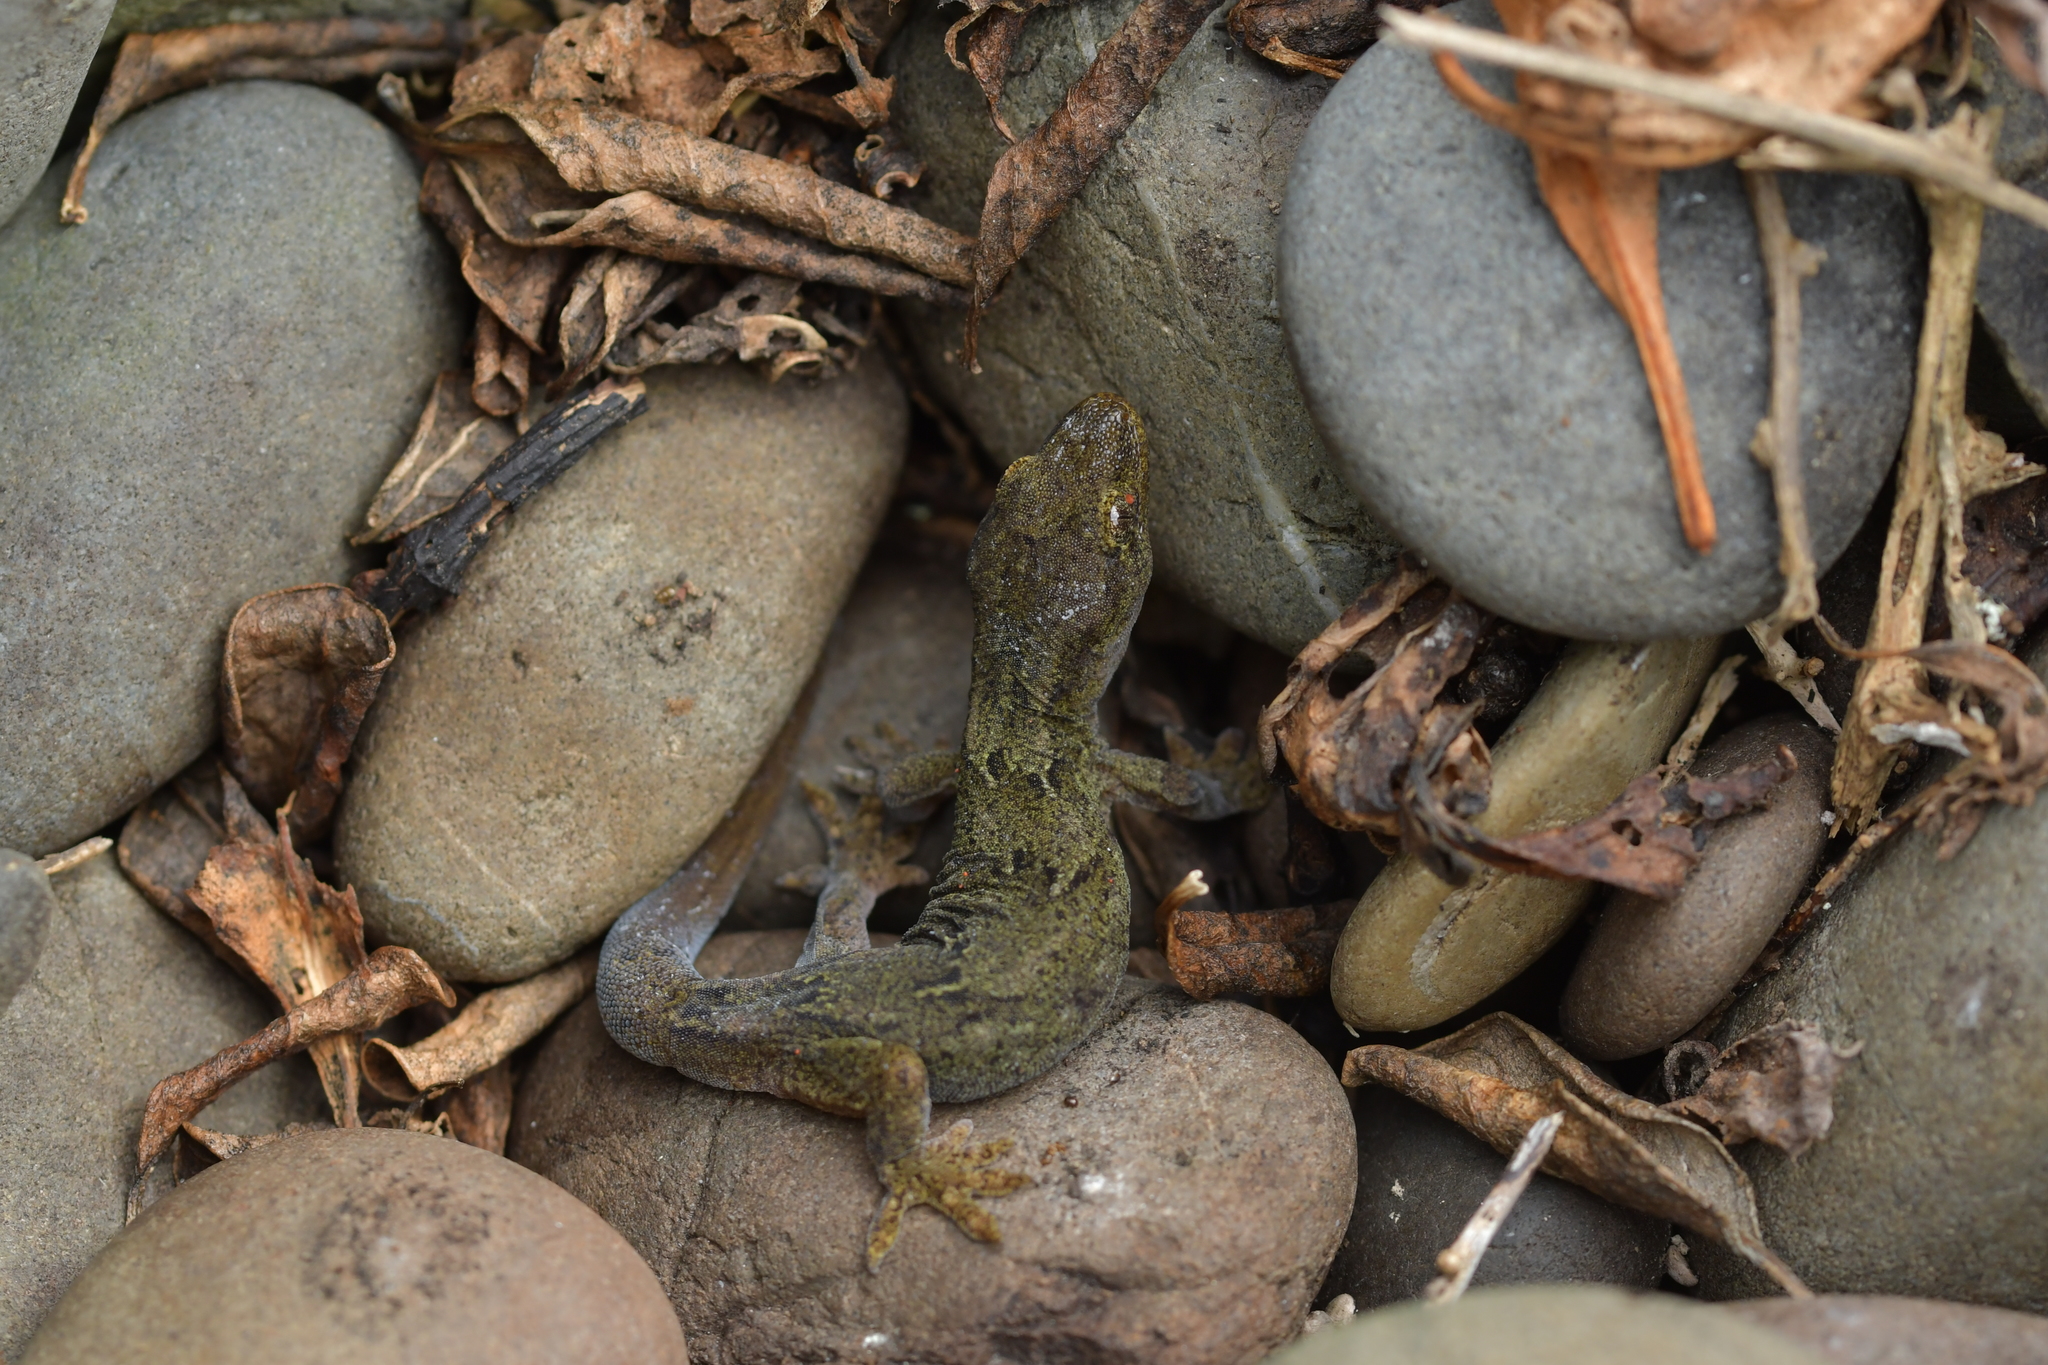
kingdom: Animalia
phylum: Chordata
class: Squamata
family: Diplodactylidae
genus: Woodworthia
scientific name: Woodworthia maculata
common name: Raukawa gecko
